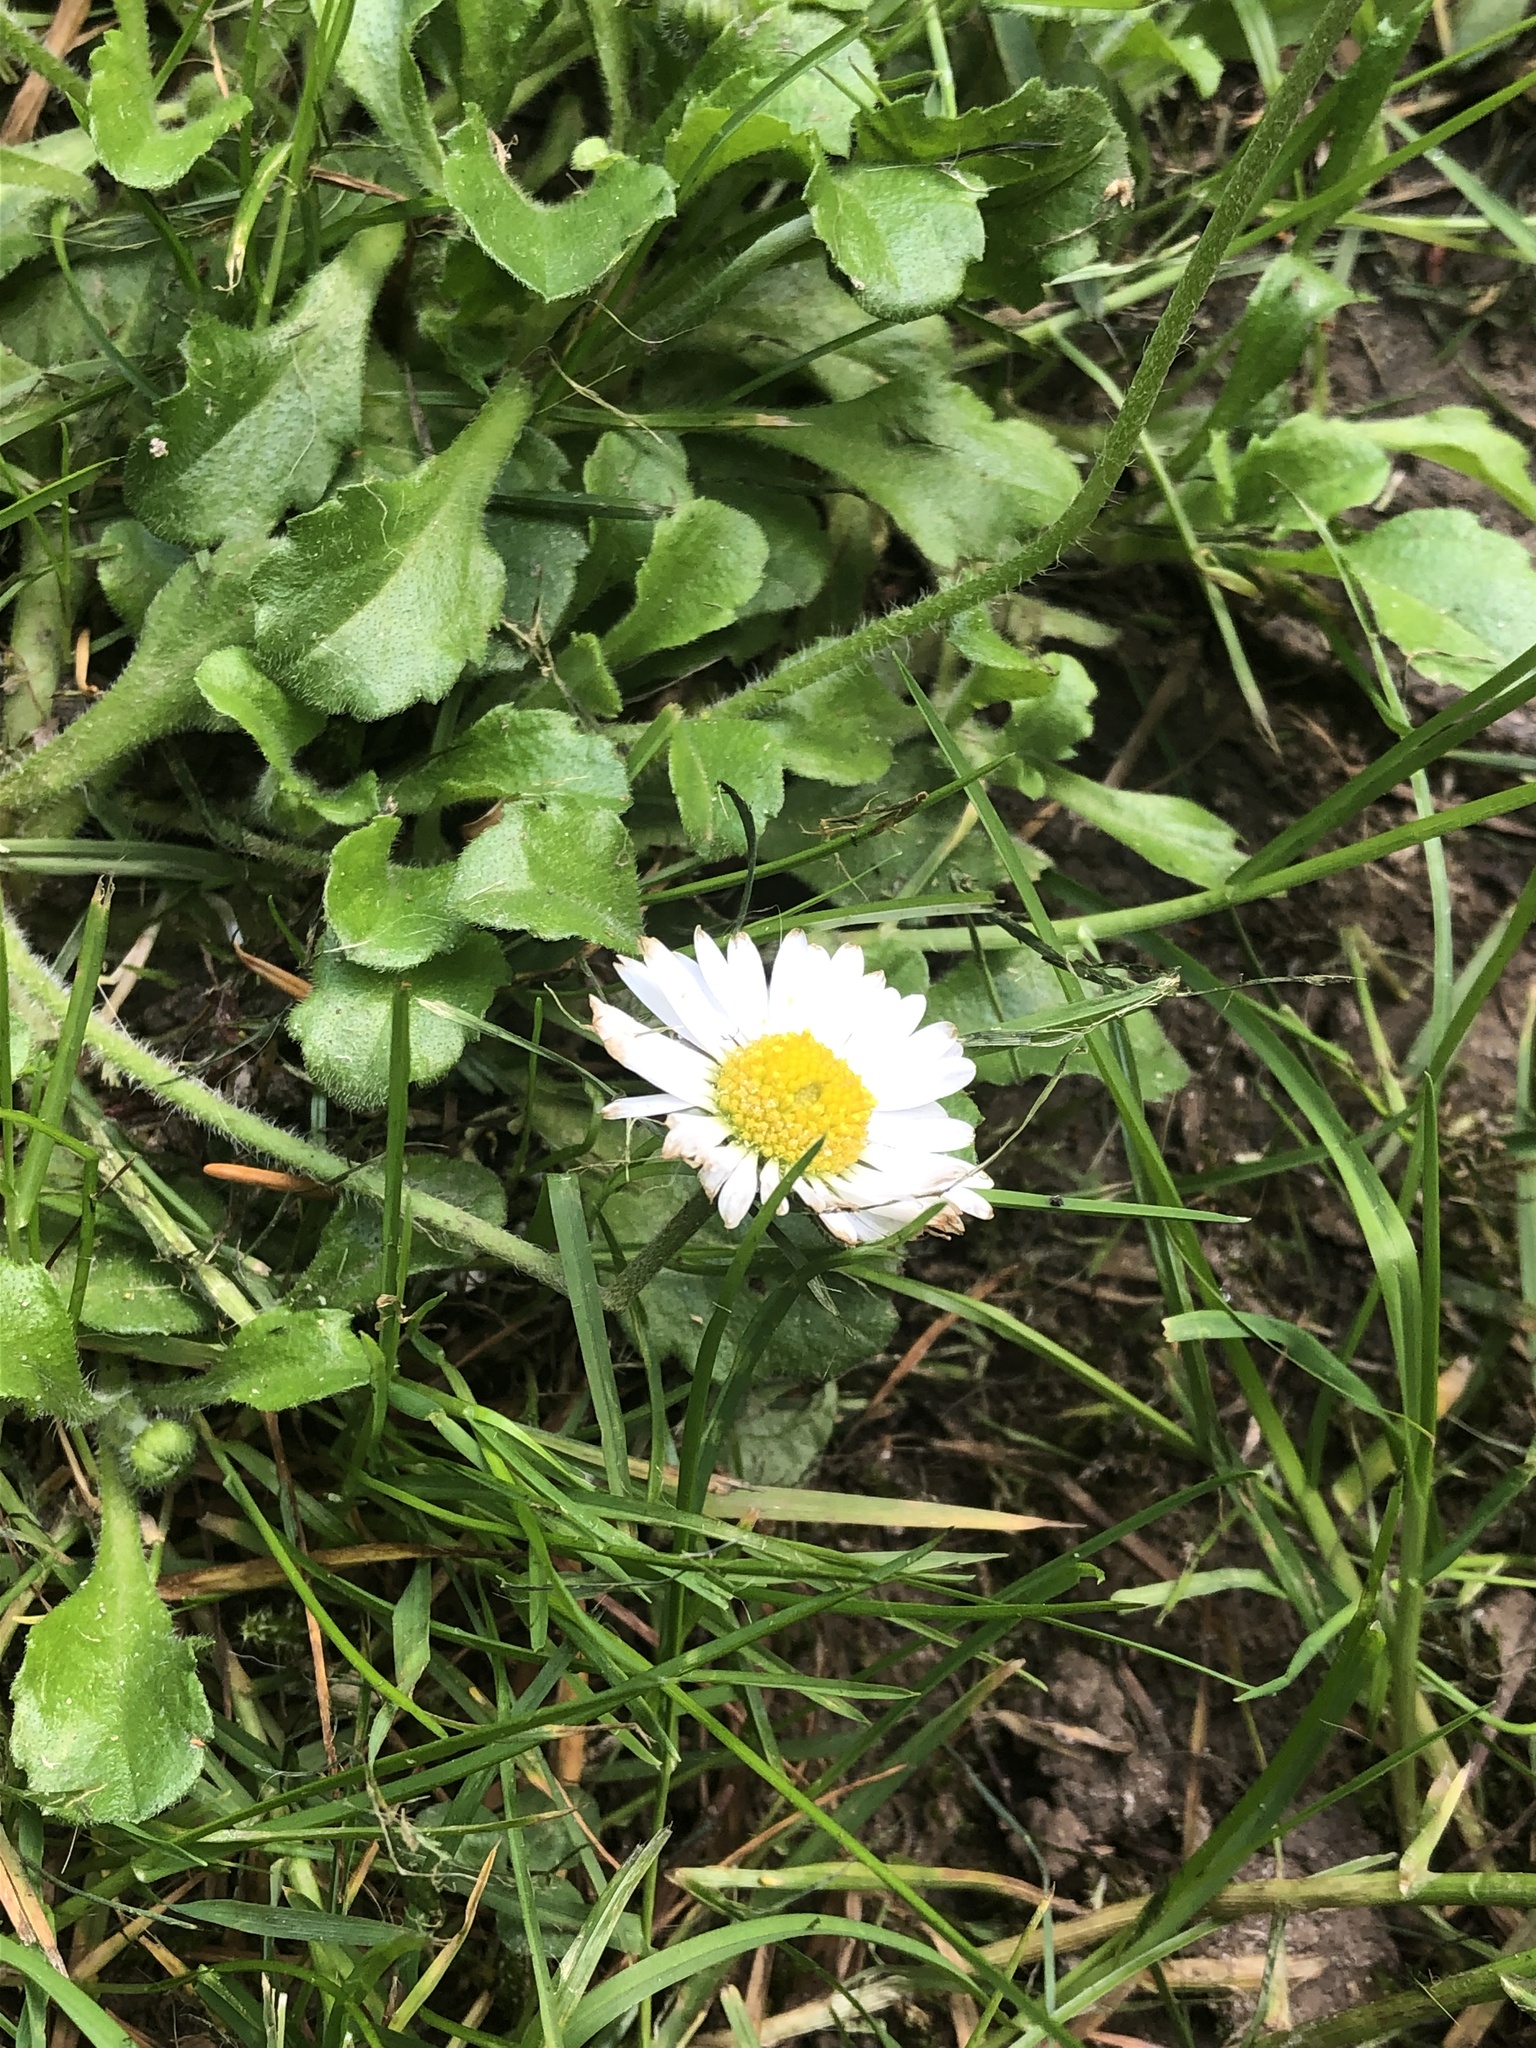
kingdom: Plantae
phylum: Tracheophyta
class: Magnoliopsida
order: Asterales
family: Asteraceae
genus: Bellis
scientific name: Bellis perennis
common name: Lawndaisy
